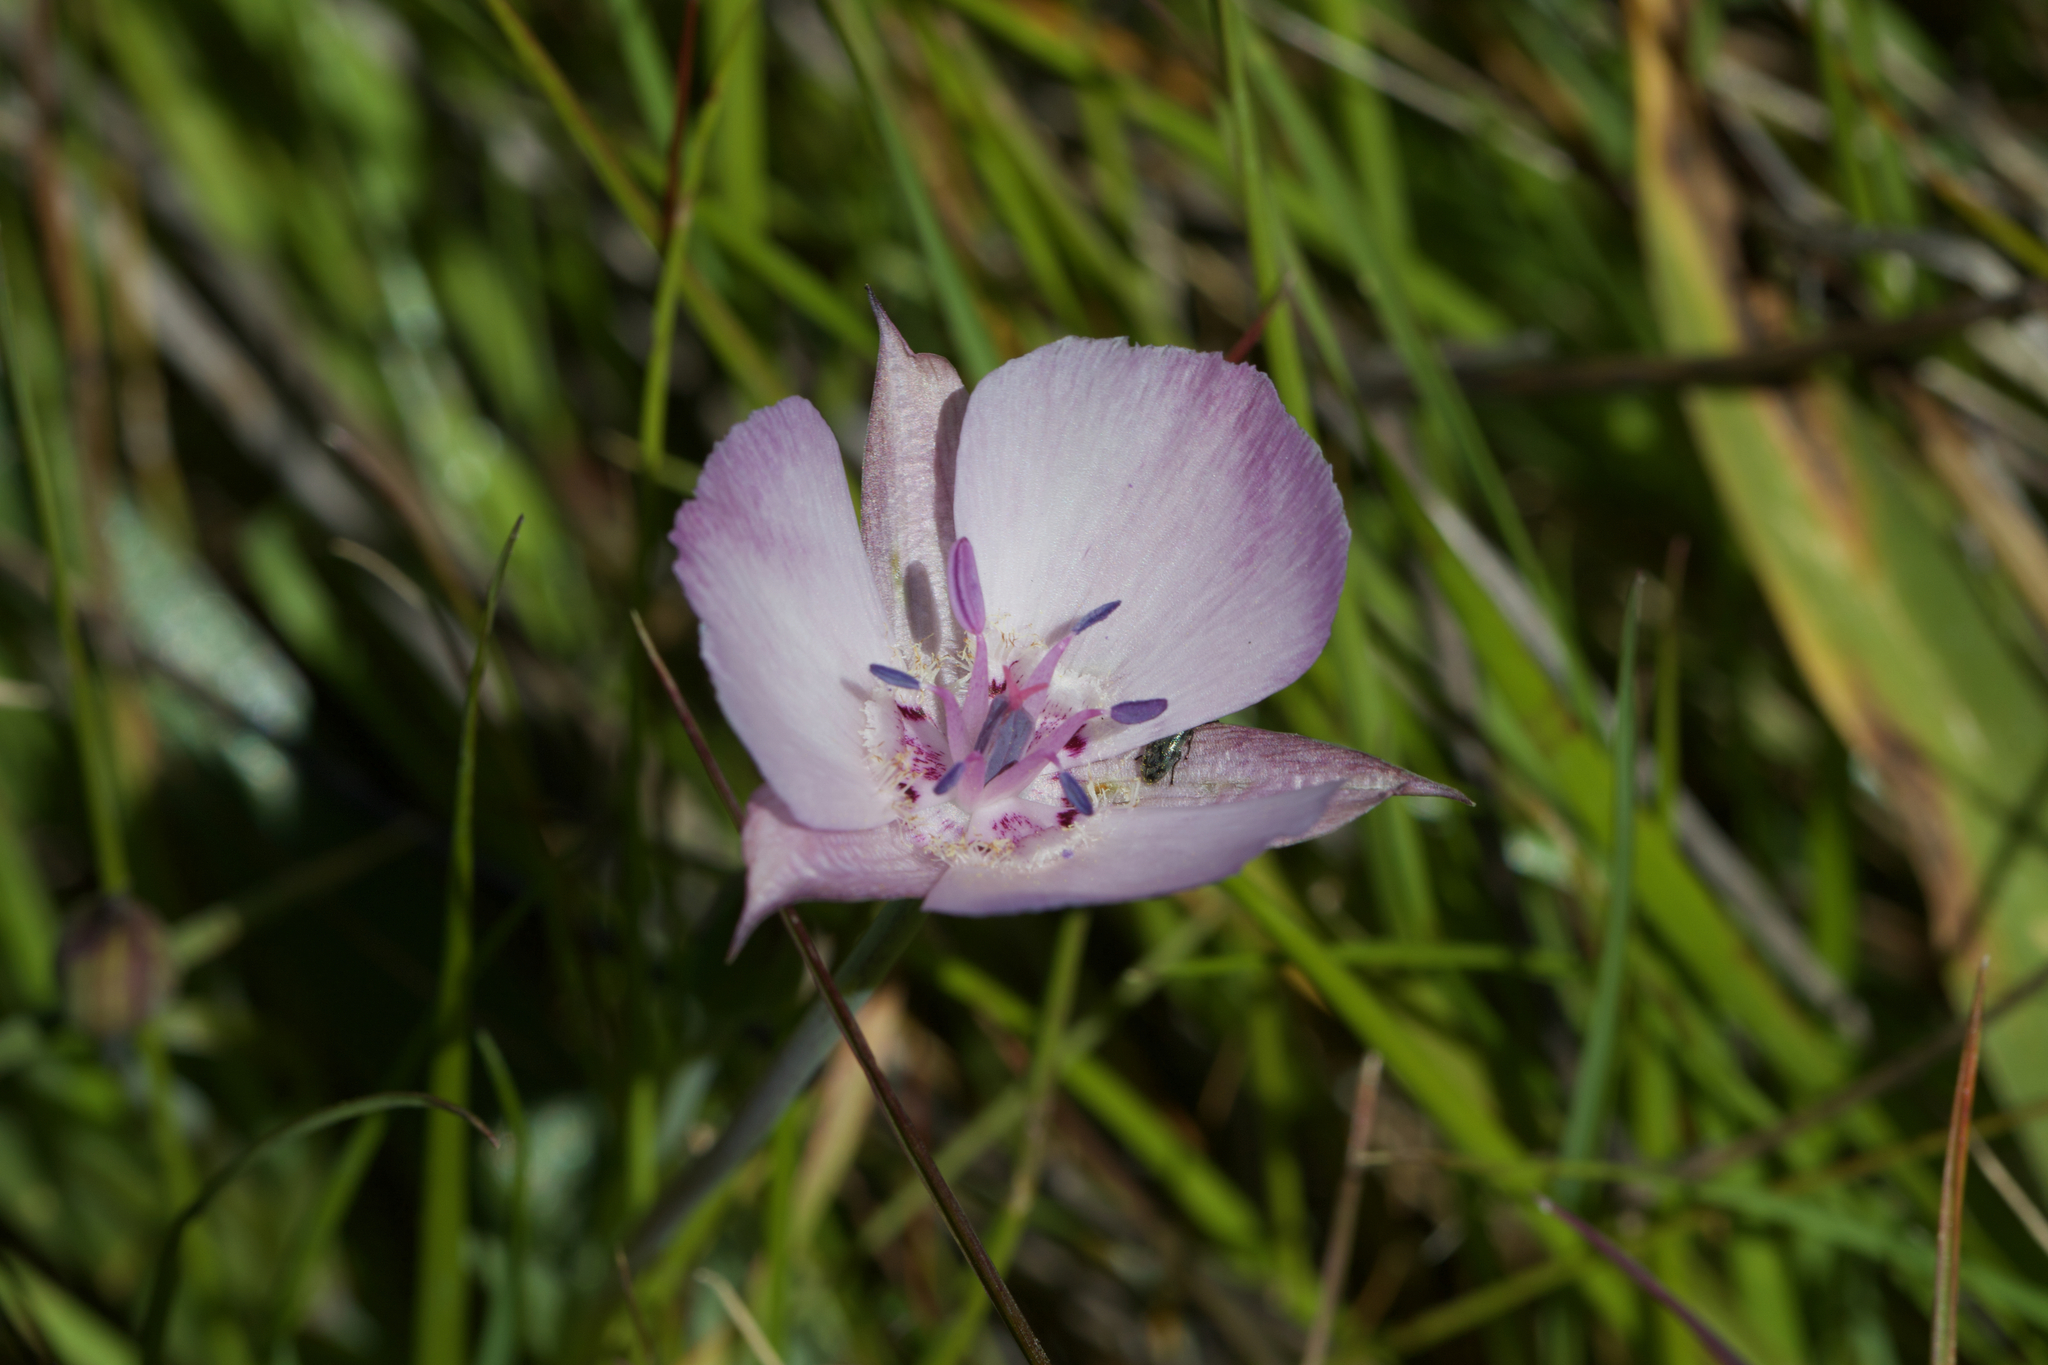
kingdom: Plantae
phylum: Tracheophyta
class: Liliopsida
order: Liliales
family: Liliaceae
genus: Calochortus
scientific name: Calochortus umbellatus
